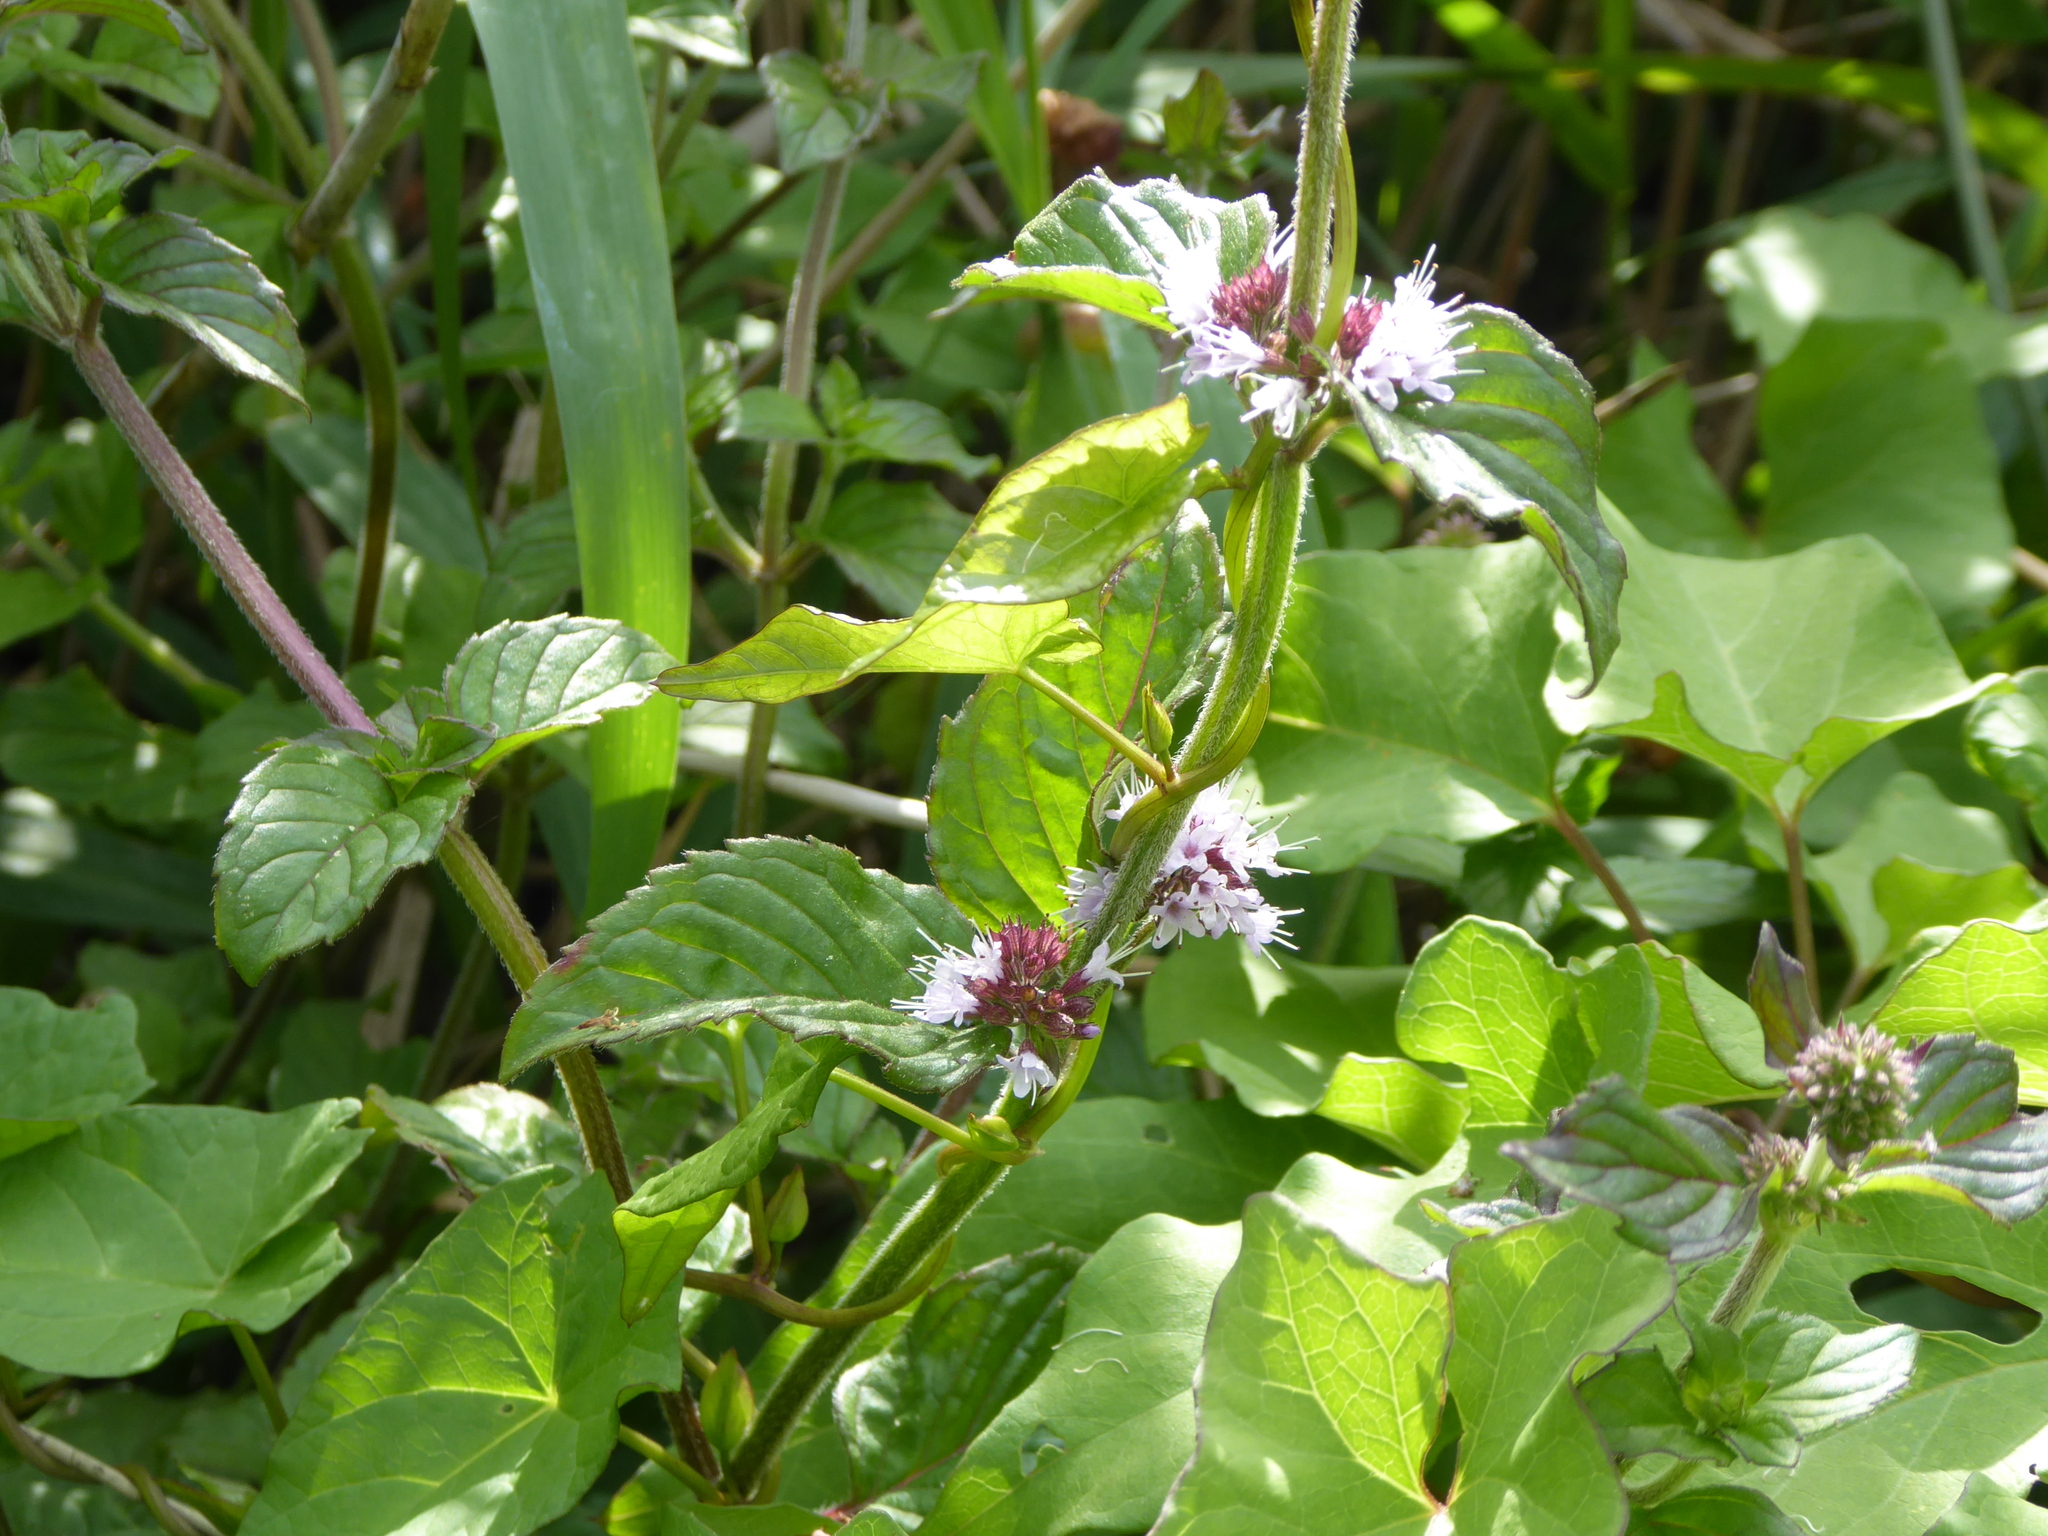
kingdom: Plantae
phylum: Tracheophyta
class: Magnoliopsida
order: Lamiales
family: Lamiaceae
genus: Mentha
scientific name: Mentha aquatica
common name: Water mint
